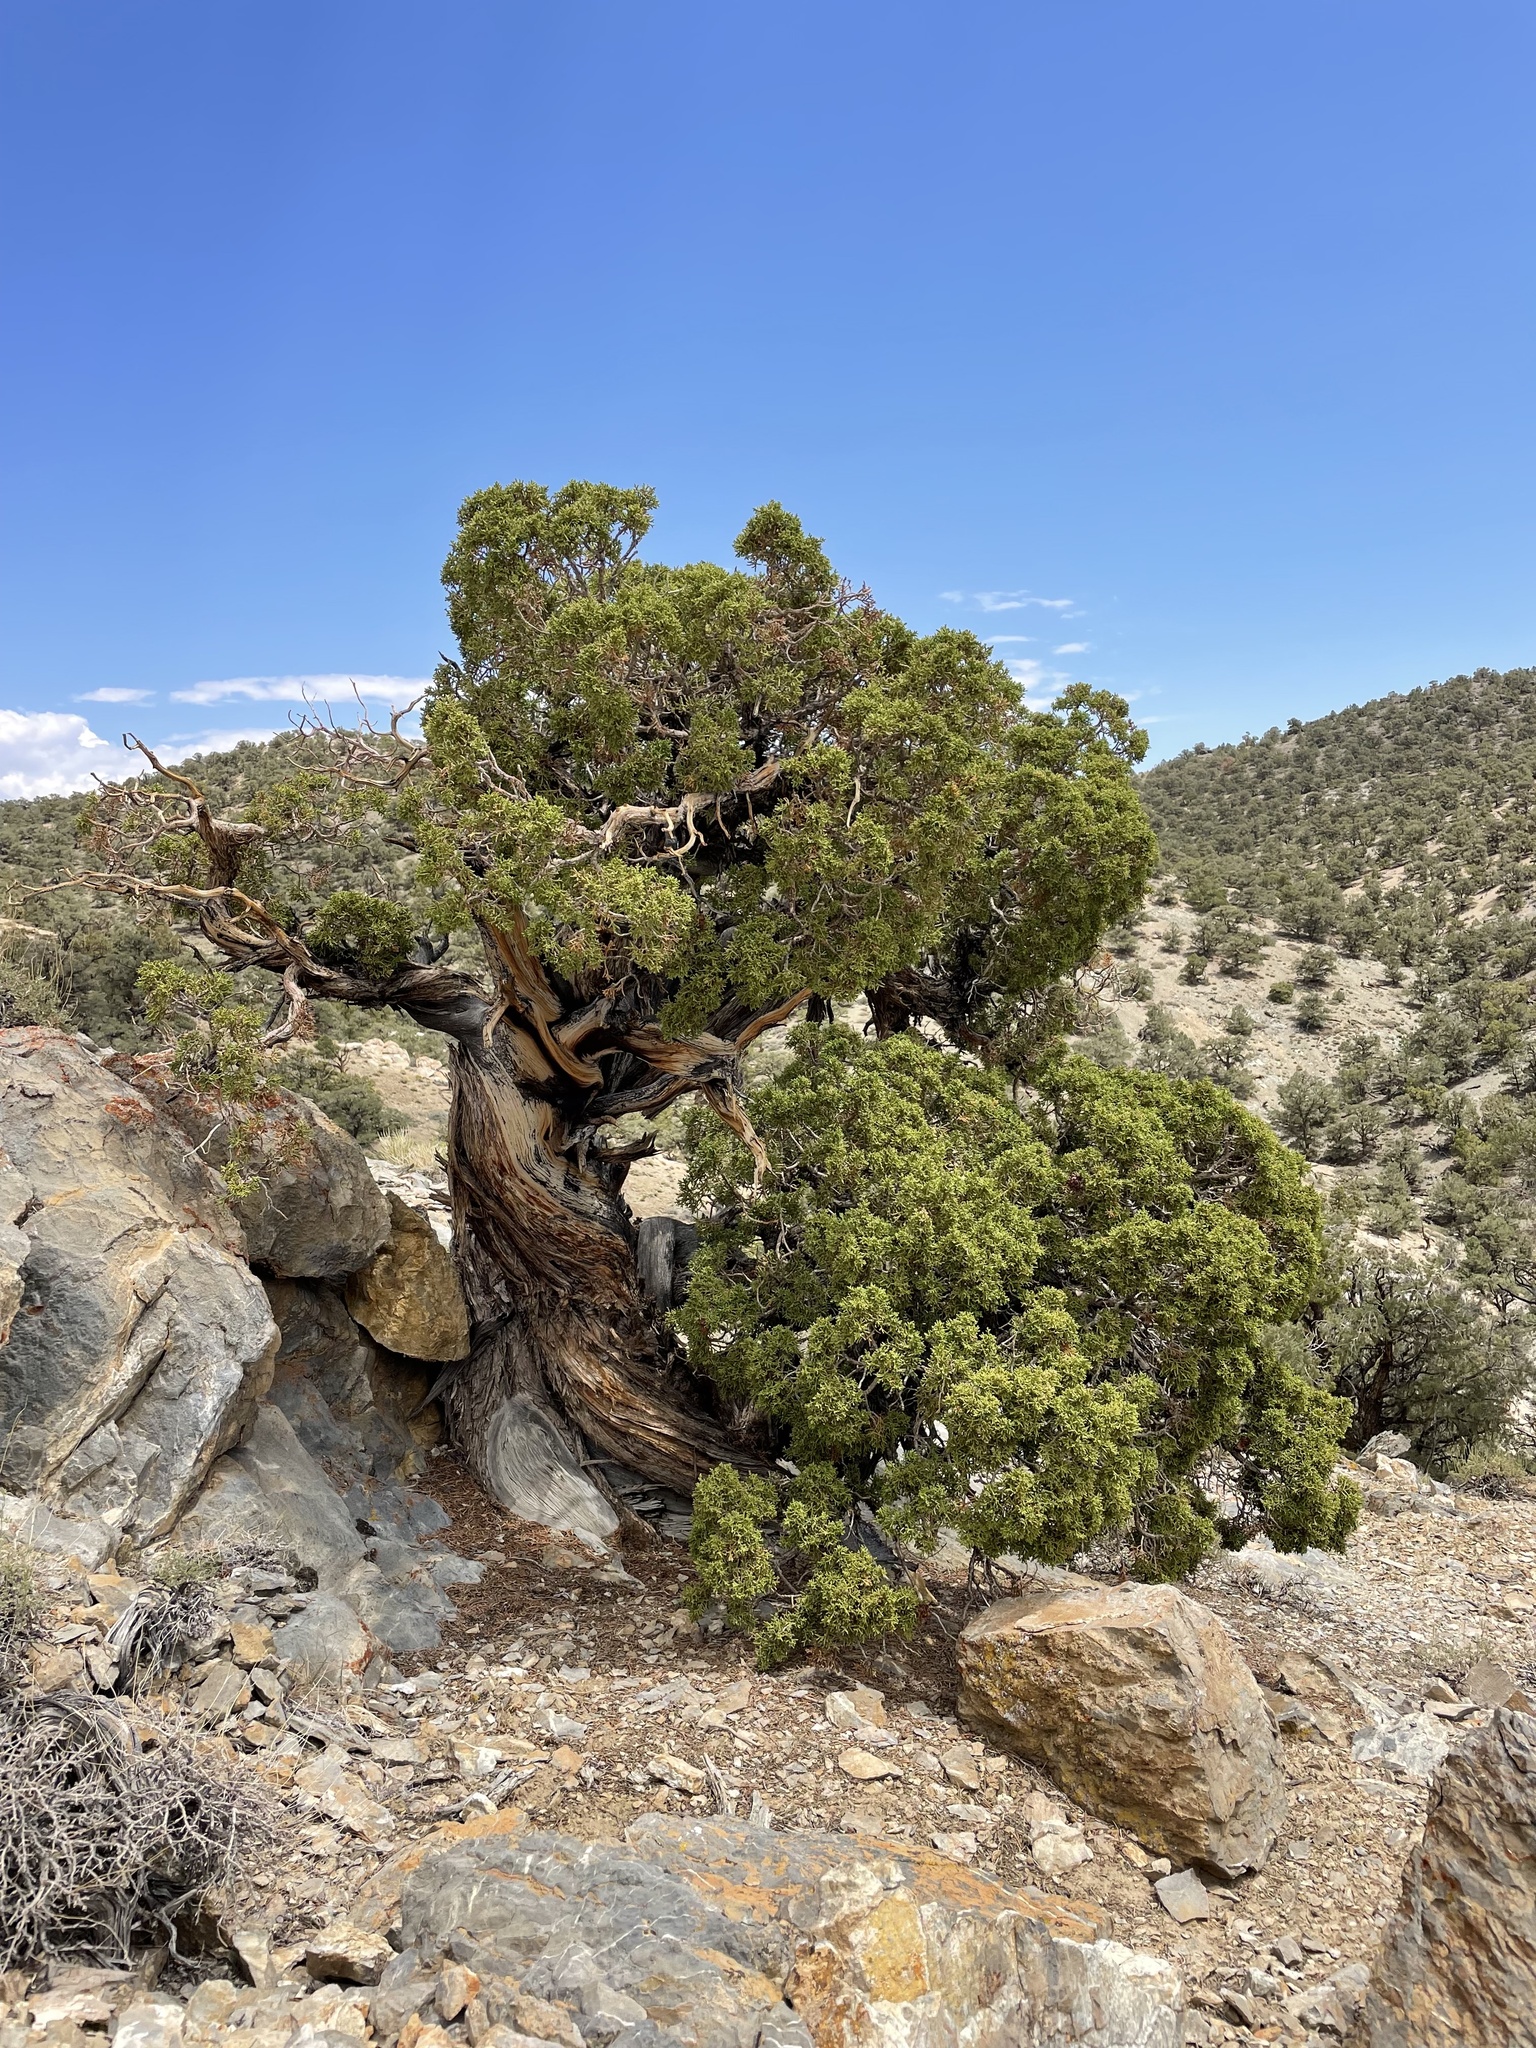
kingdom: Plantae
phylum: Tracheophyta
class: Pinopsida
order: Pinales
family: Cupressaceae
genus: Juniperus
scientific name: Juniperus osteosperma
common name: Utah juniper
